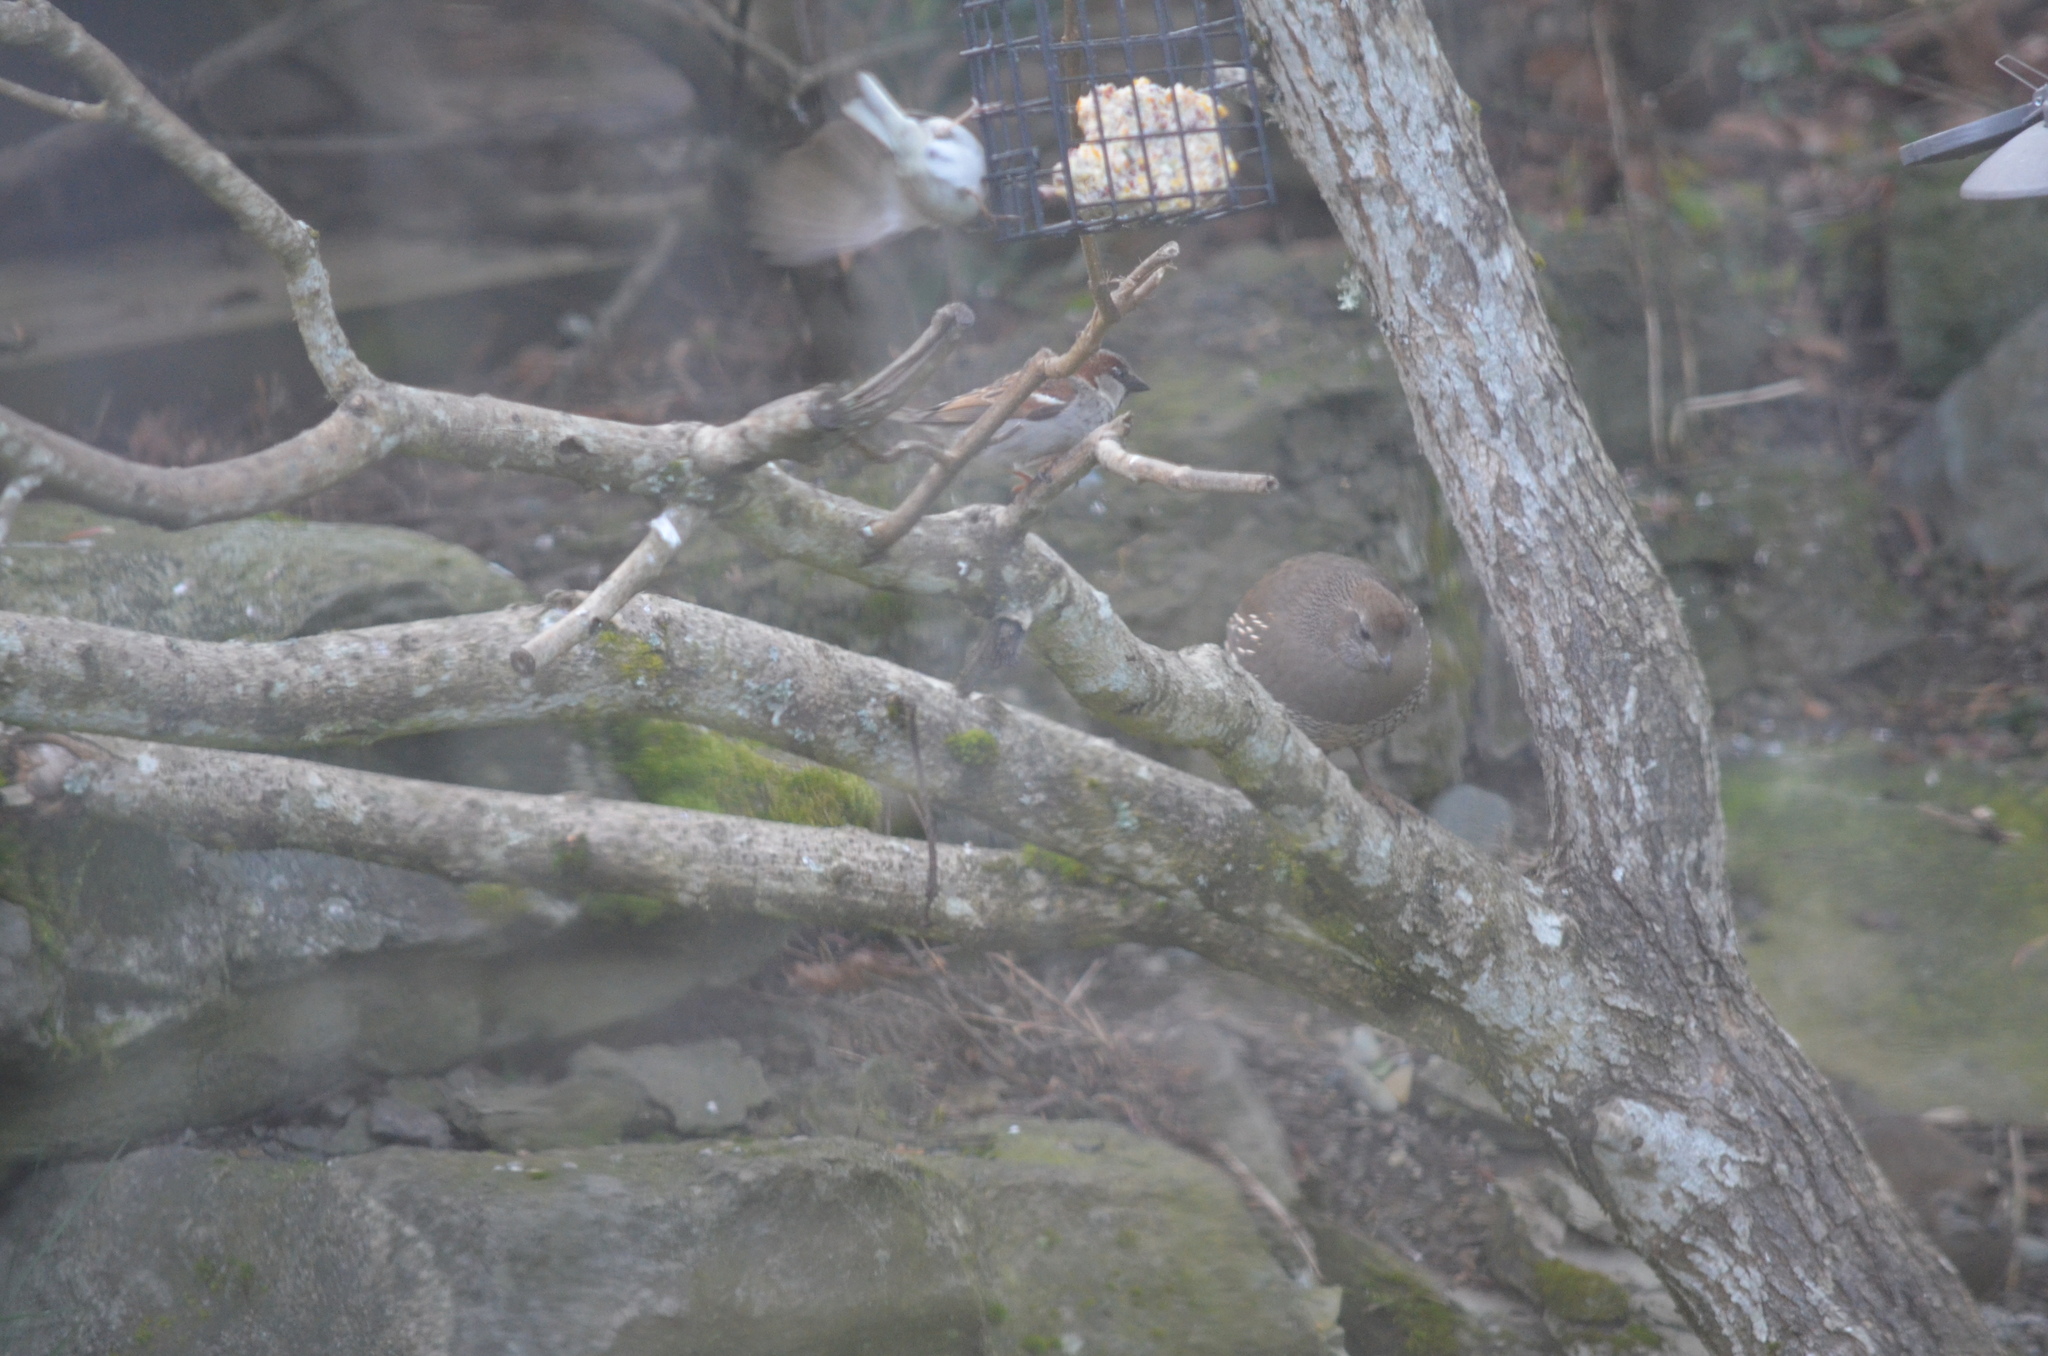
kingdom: Animalia
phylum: Chordata
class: Aves
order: Galliformes
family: Odontophoridae
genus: Callipepla
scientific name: Callipepla californica
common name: California quail
